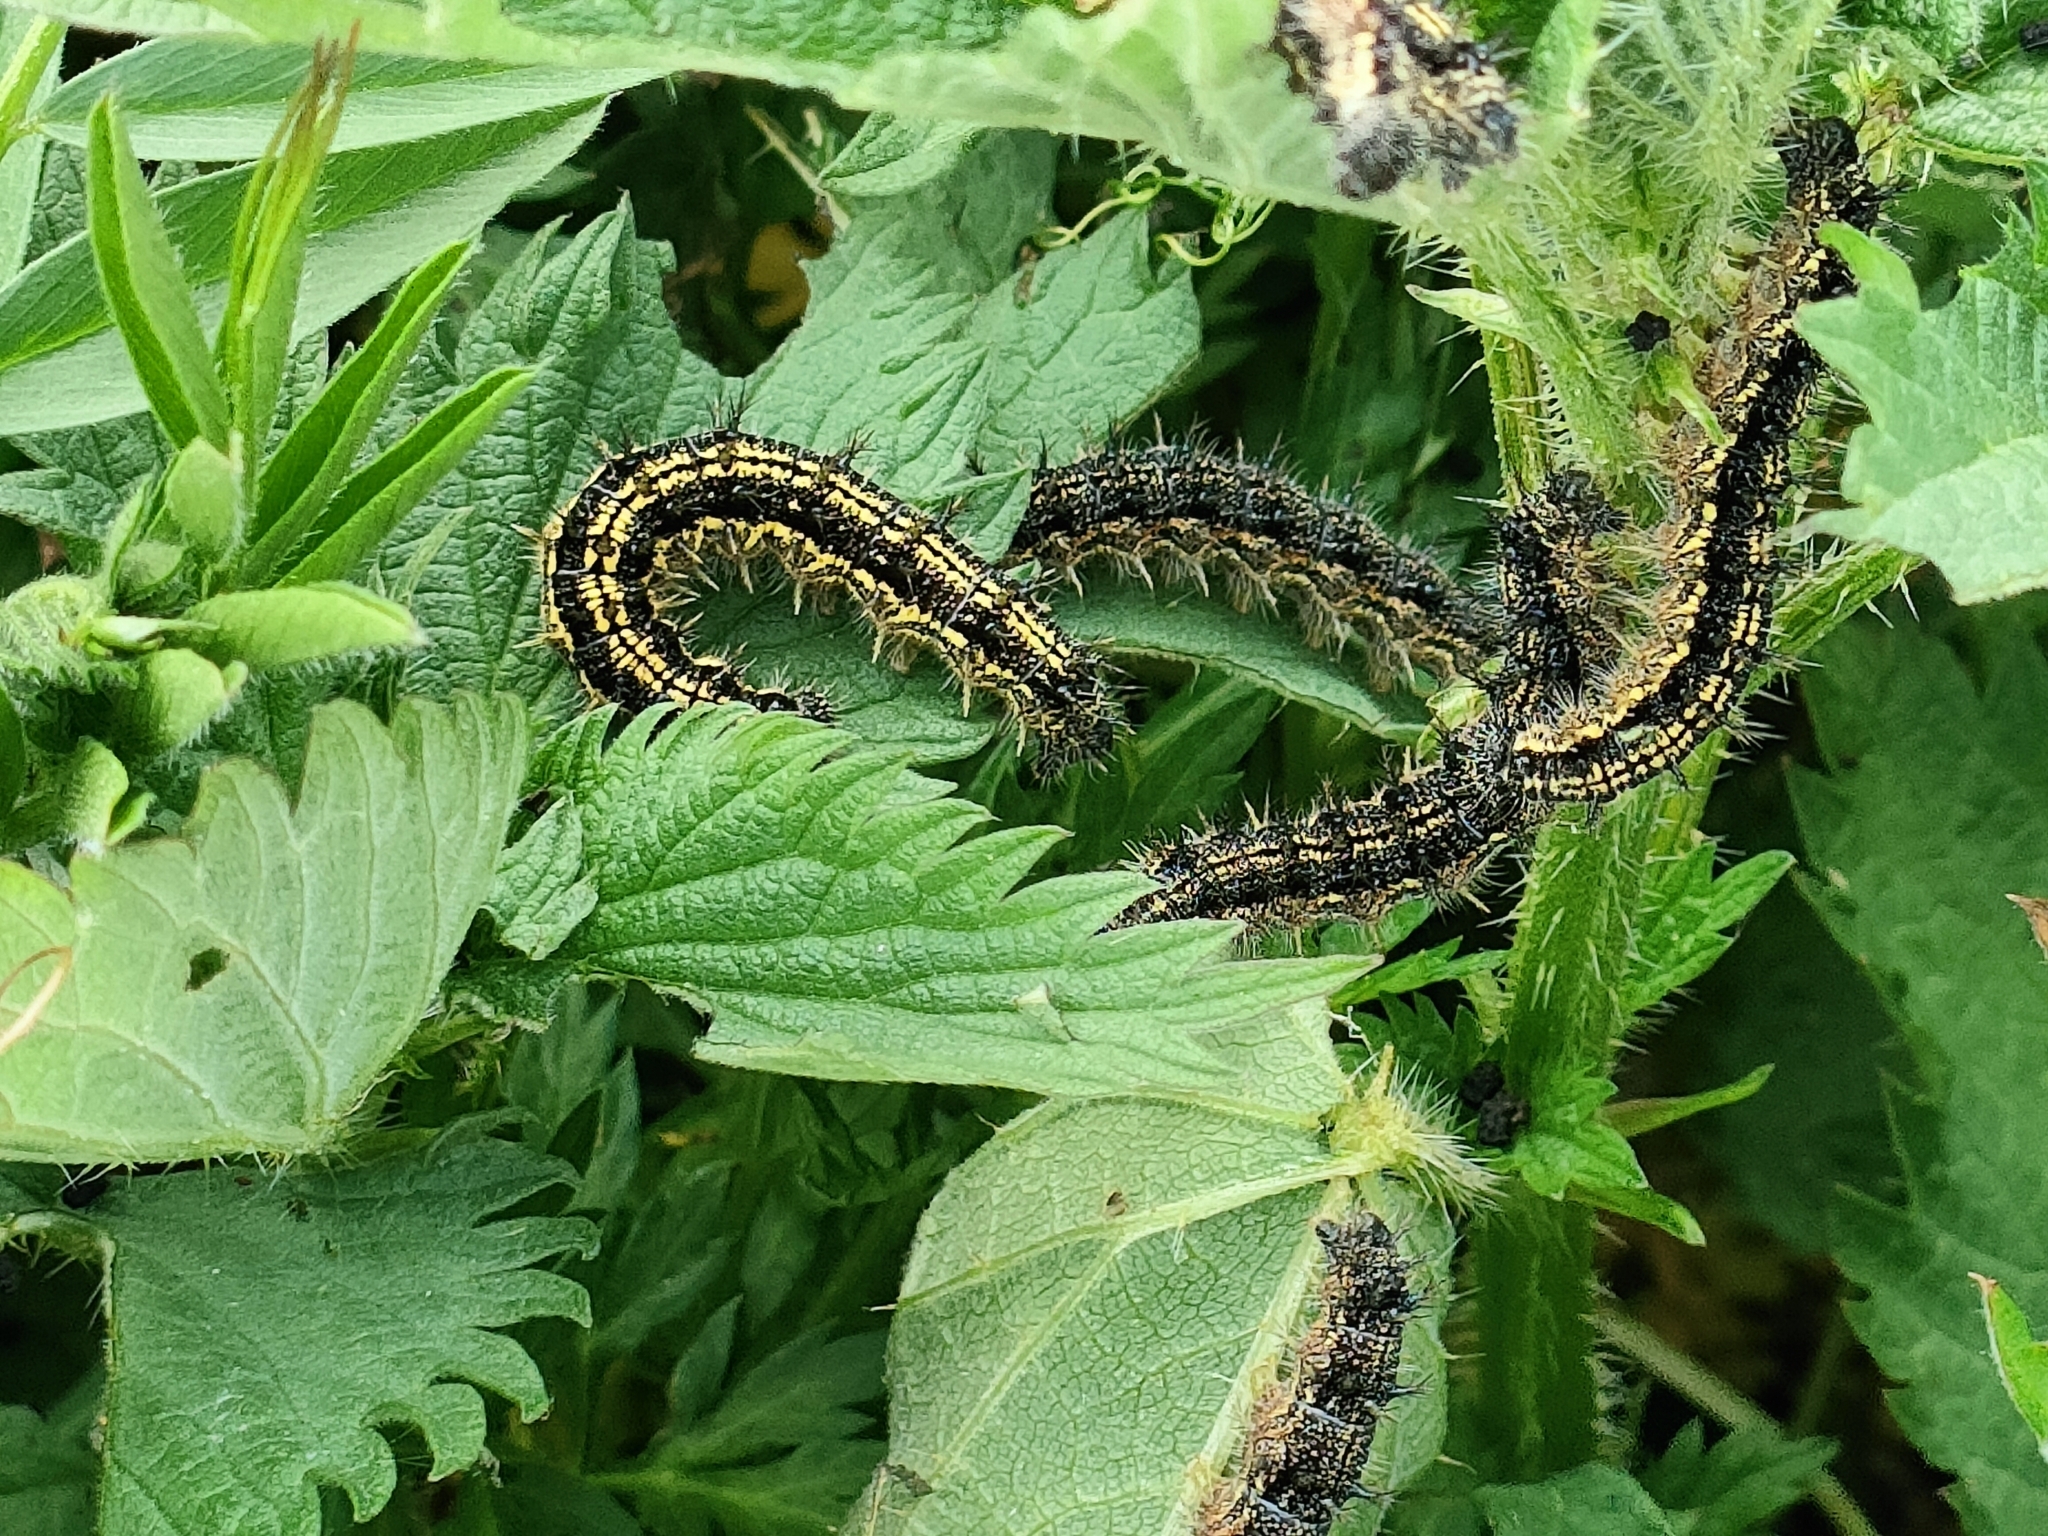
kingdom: Animalia
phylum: Arthropoda
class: Insecta
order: Lepidoptera
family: Nymphalidae
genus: Aglais
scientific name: Aglais urticae
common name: Small tortoiseshell
